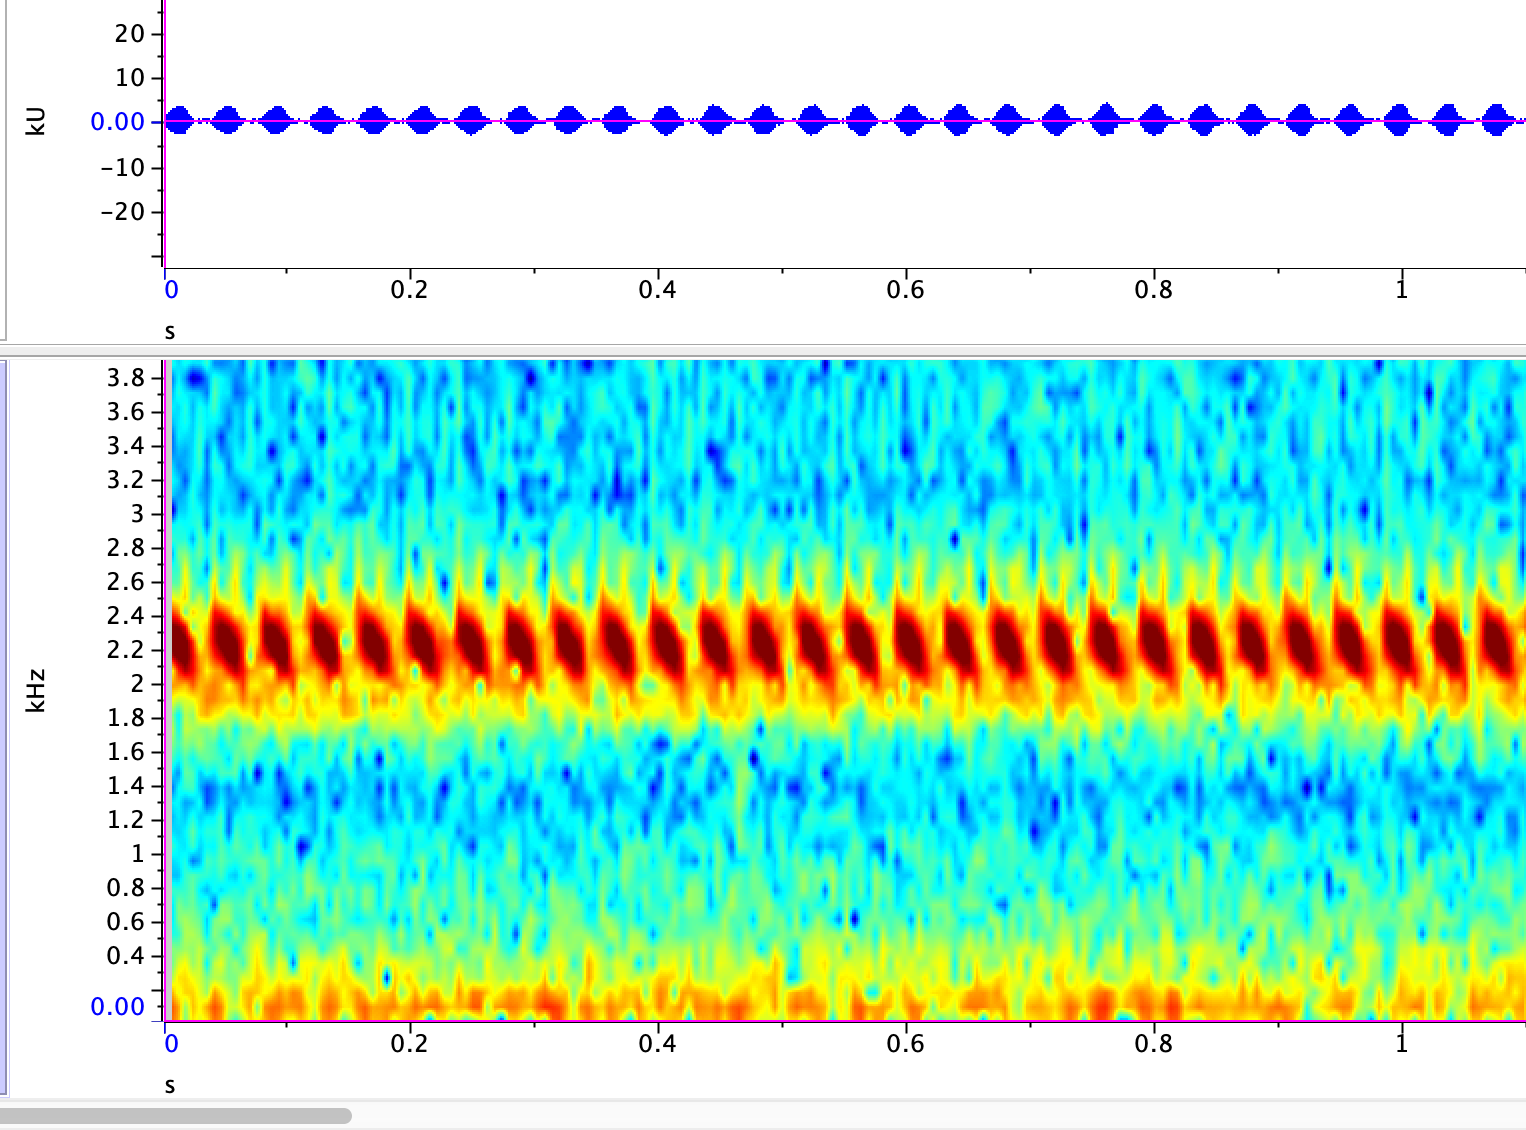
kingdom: Animalia
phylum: Arthropoda
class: Insecta
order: Orthoptera
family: Gryllidae
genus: Oecanthus
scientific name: Oecanthus californicus
